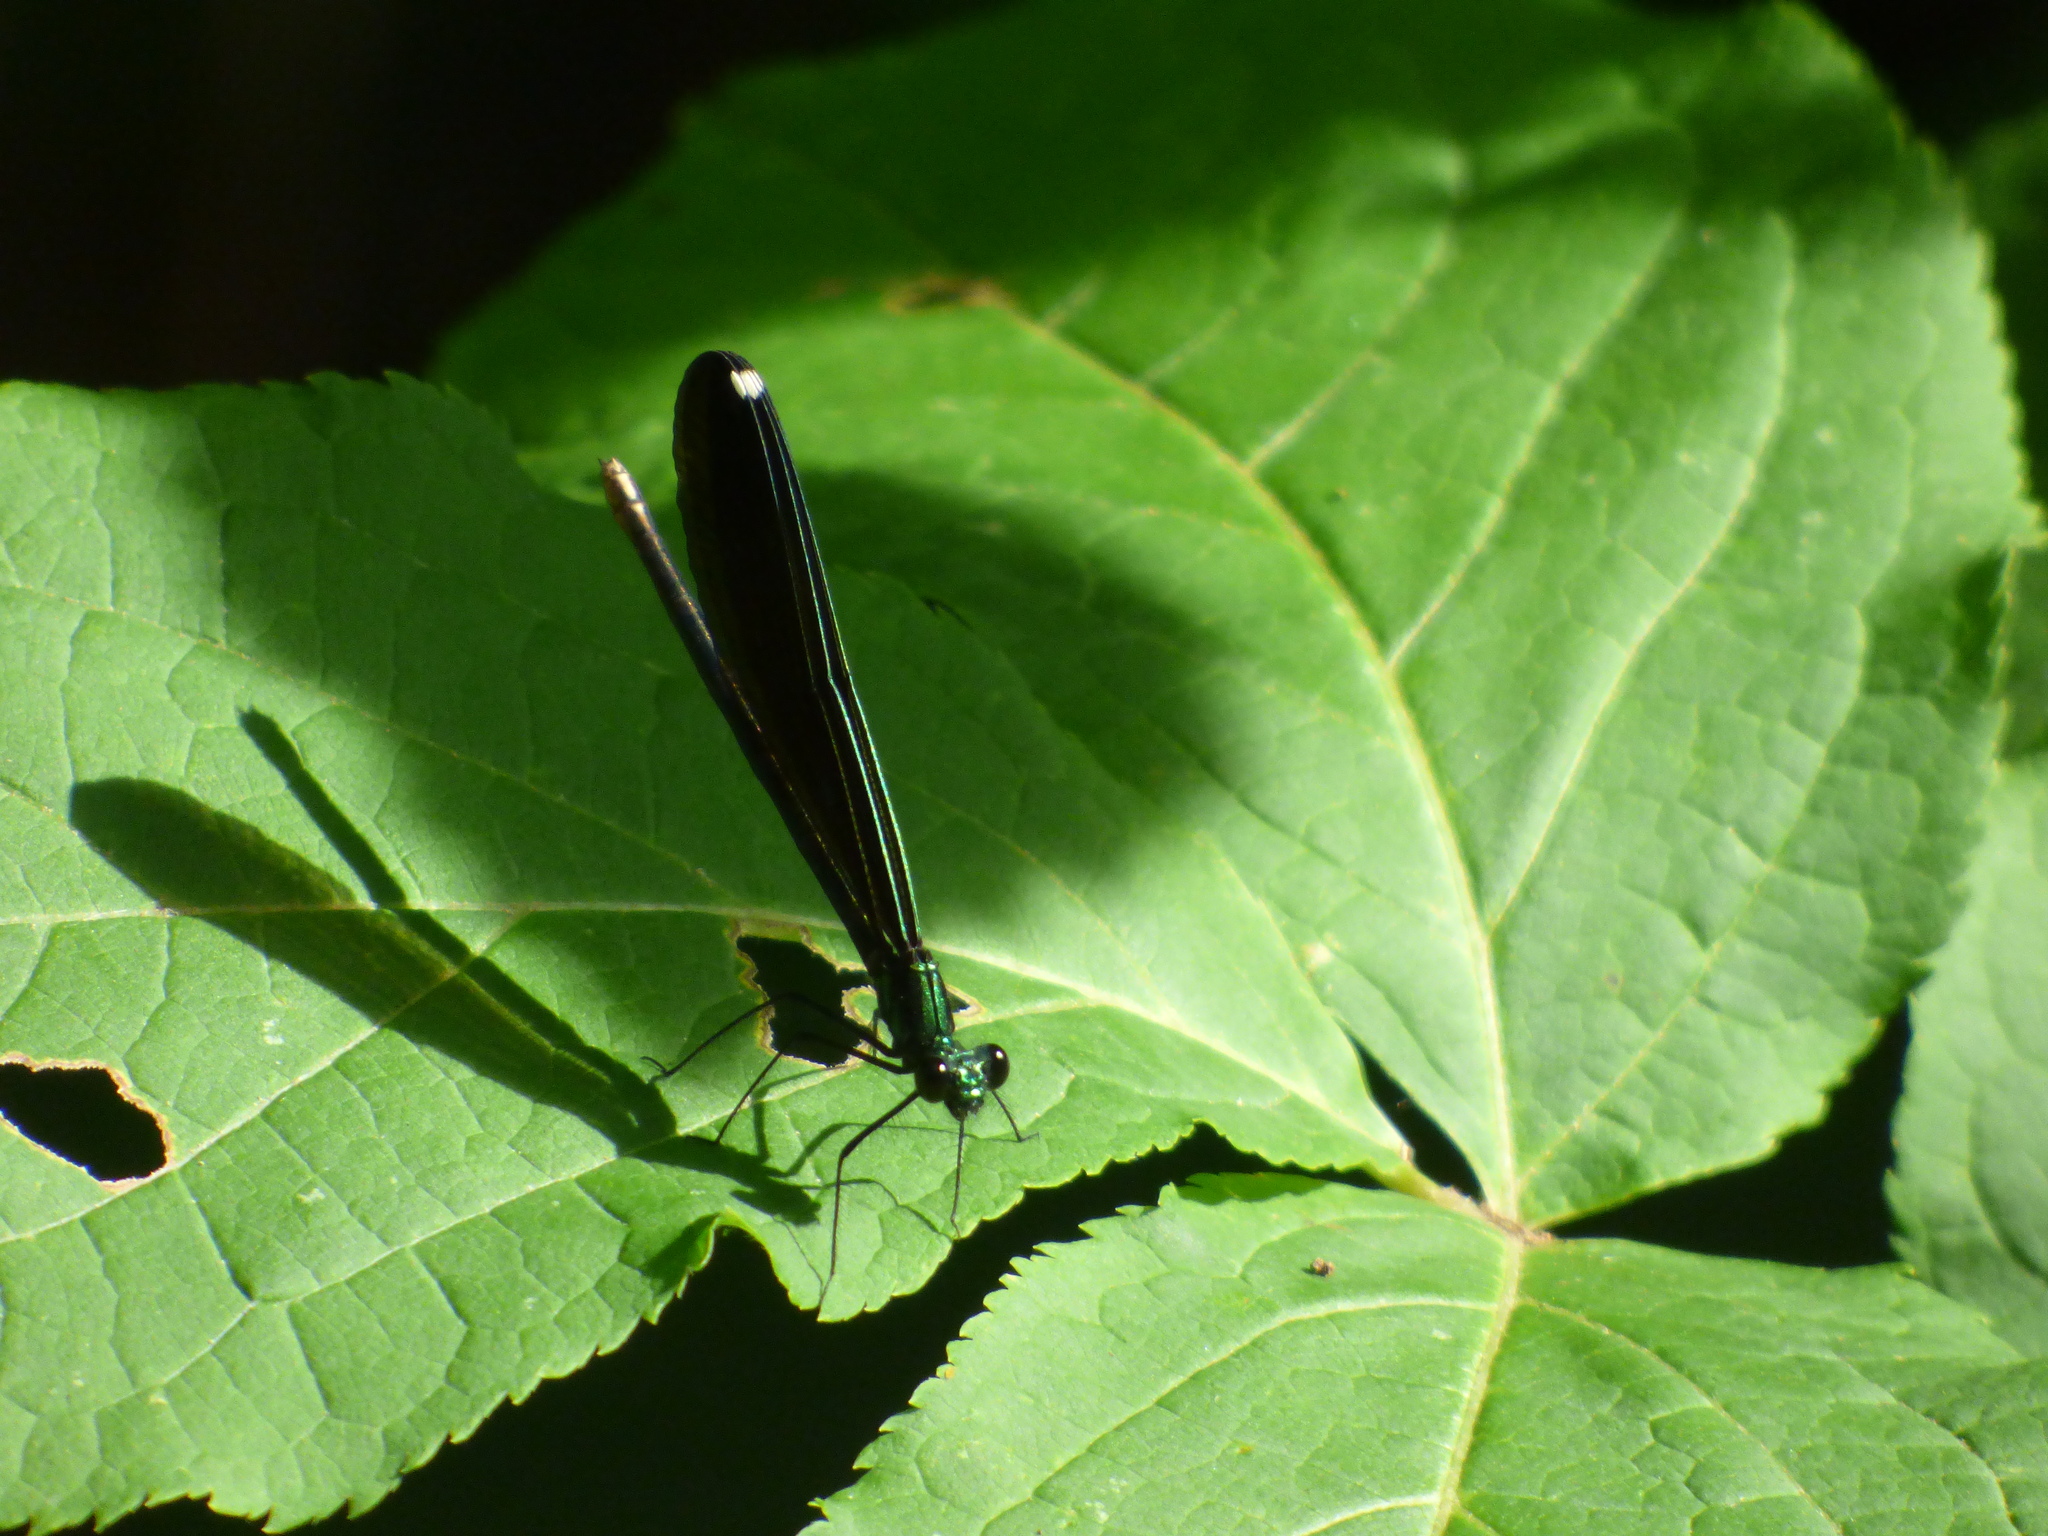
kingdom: Animalia
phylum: Arthropoda
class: Insecta
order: Odonata
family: Calopterygidae
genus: Calopteryx
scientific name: Calopteryx maculata
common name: Ebony jewelwing
